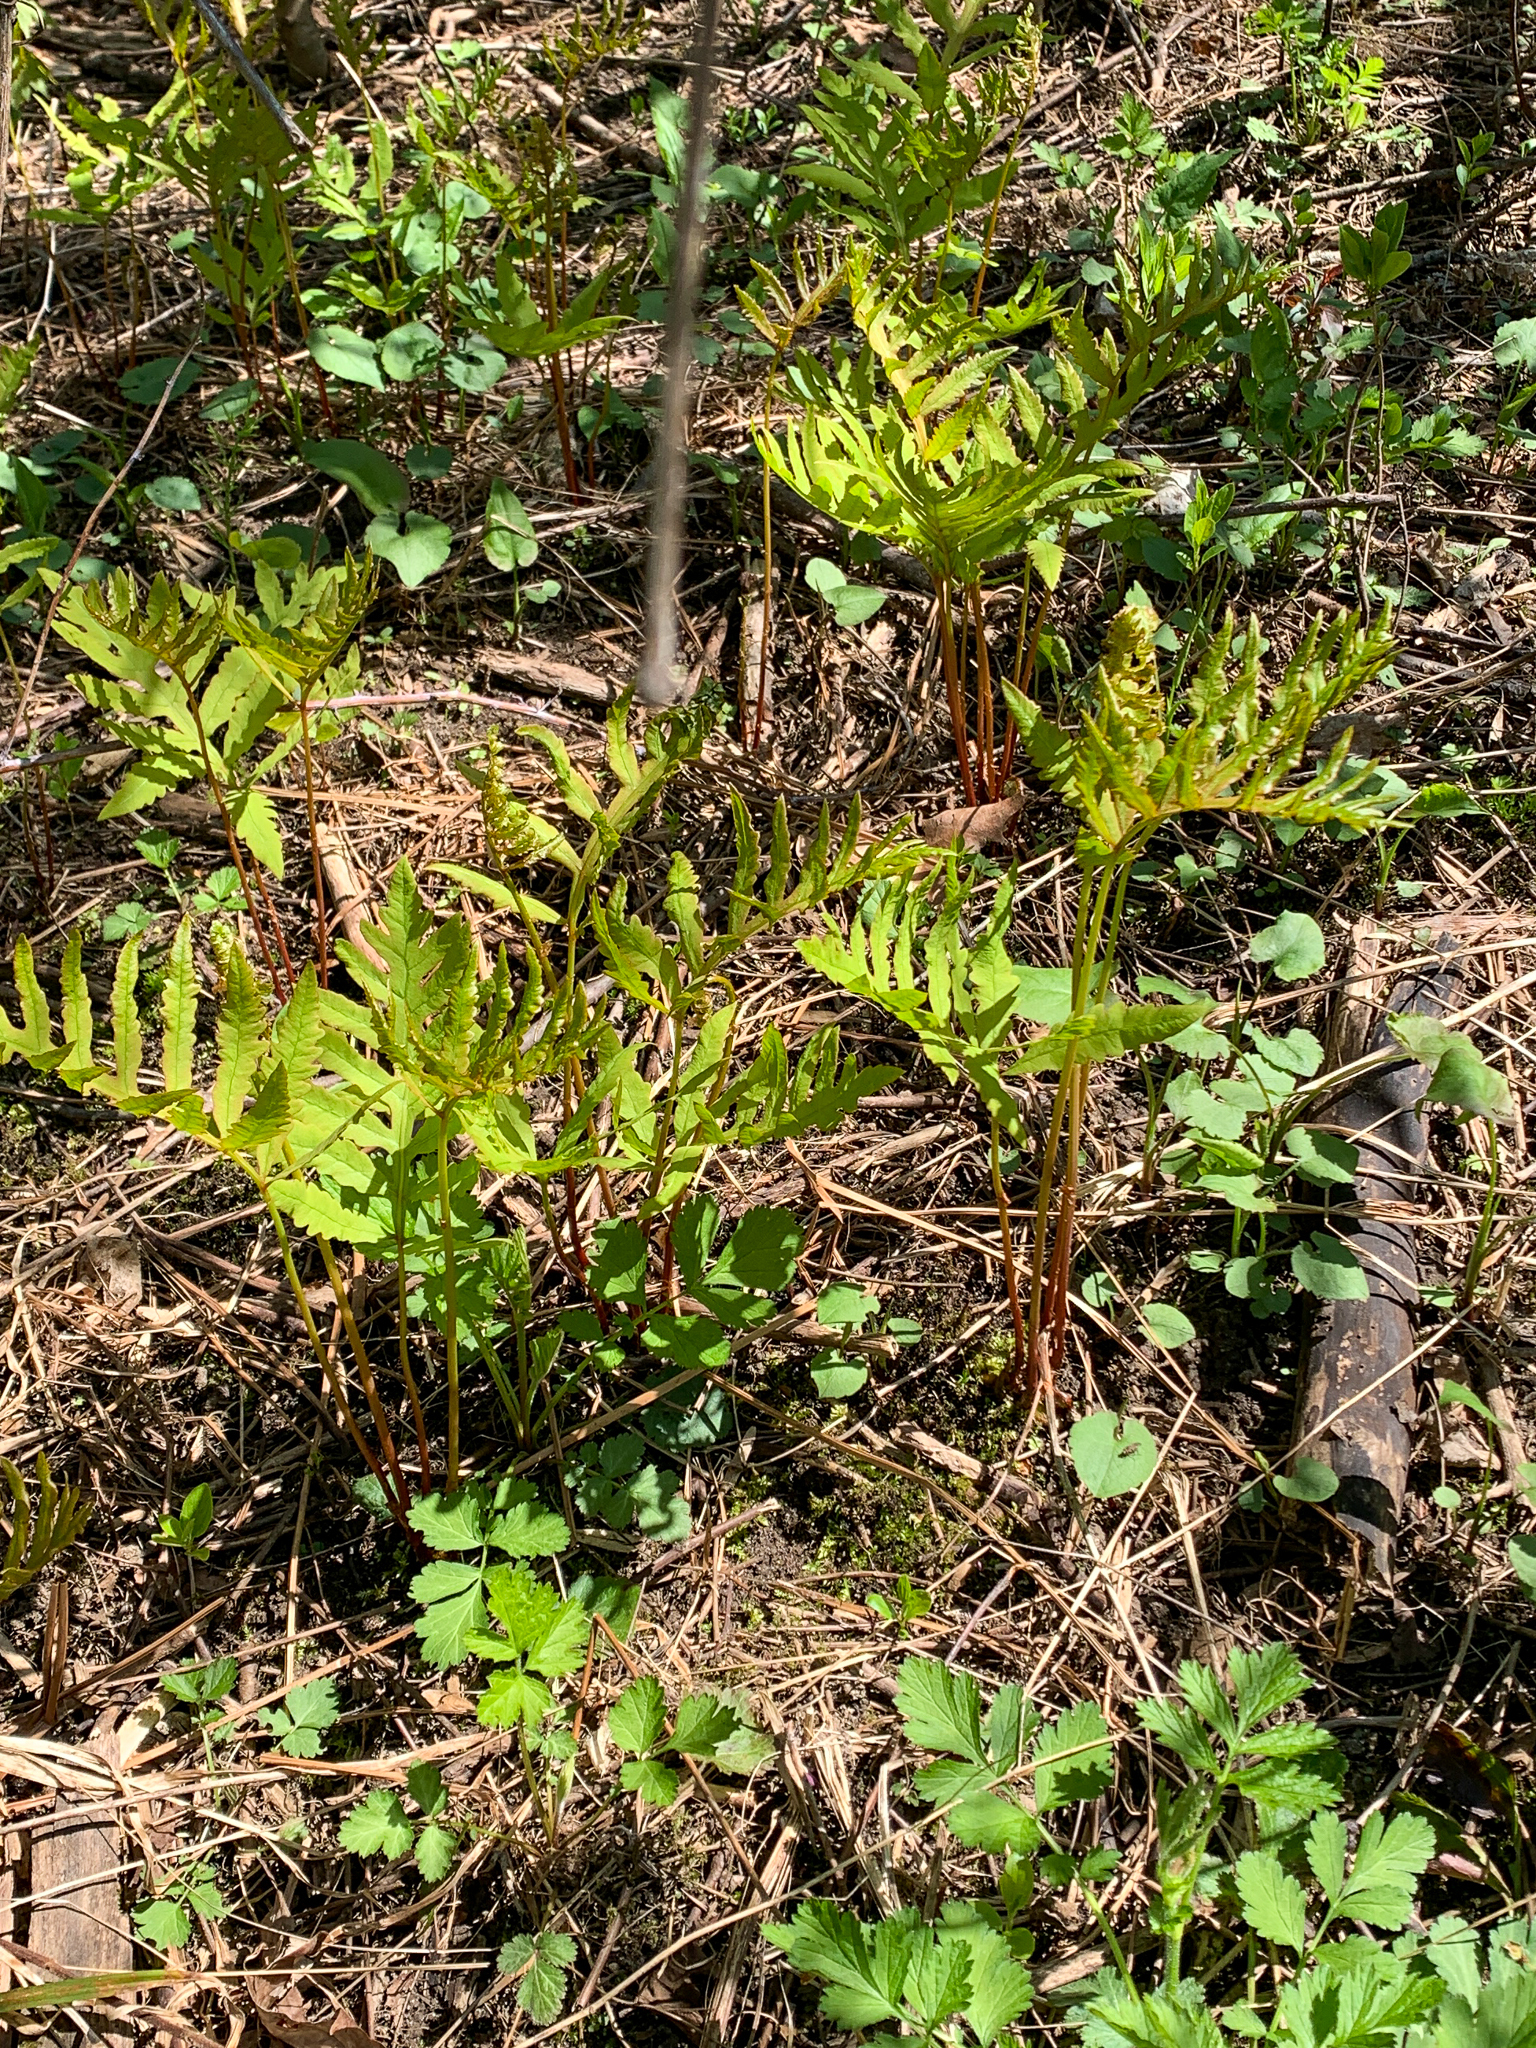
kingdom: Plantae
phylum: Tracheophyta
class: Polypodiopsida
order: Polypodiales
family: Onocleaceae
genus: Onoclea
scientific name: Onoclea sensibilis
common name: Sensitive fern
